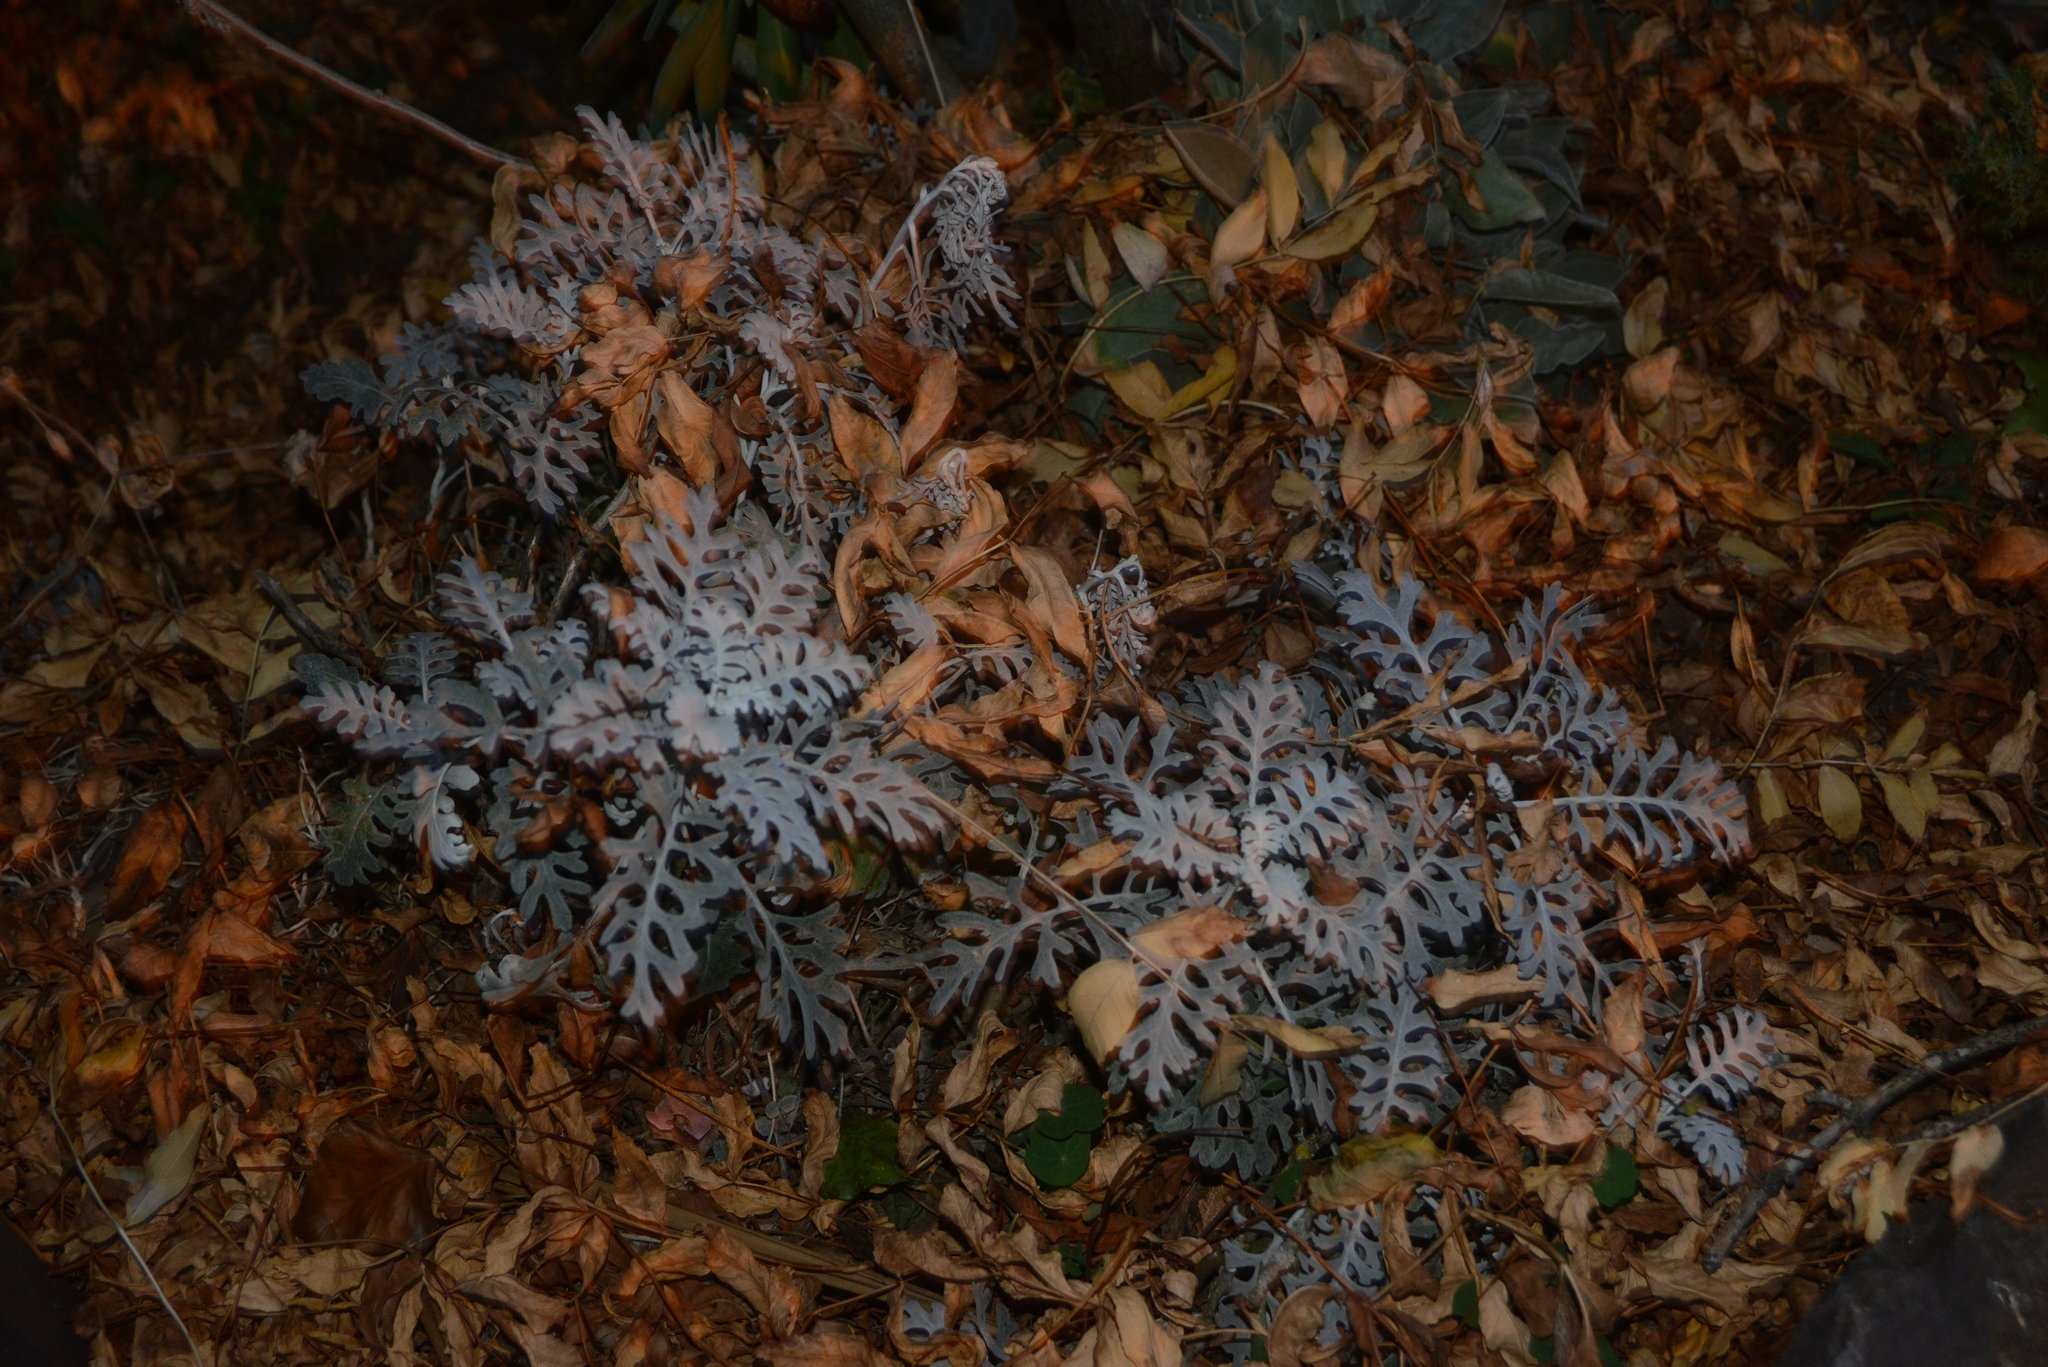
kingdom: Plantae
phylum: Tracheophyta
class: Magnoliopsida
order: Asterales
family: Asteraceae
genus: Jacobaea
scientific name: Jacobaea maritima
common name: Silver ragwort
